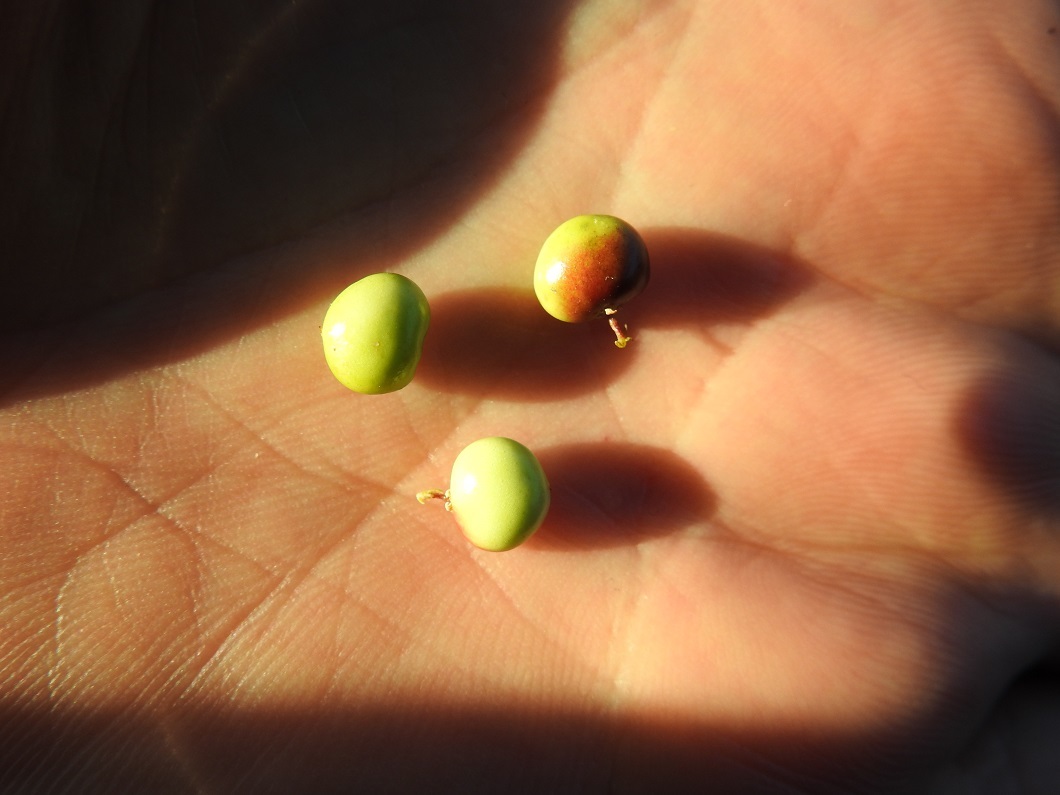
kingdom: Plantae
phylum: Tracheophyta
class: Magnoliopsida
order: Sapindales
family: Anacardiaceae
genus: Searsia
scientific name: Searsia tripartita
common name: Tripartite sumac
